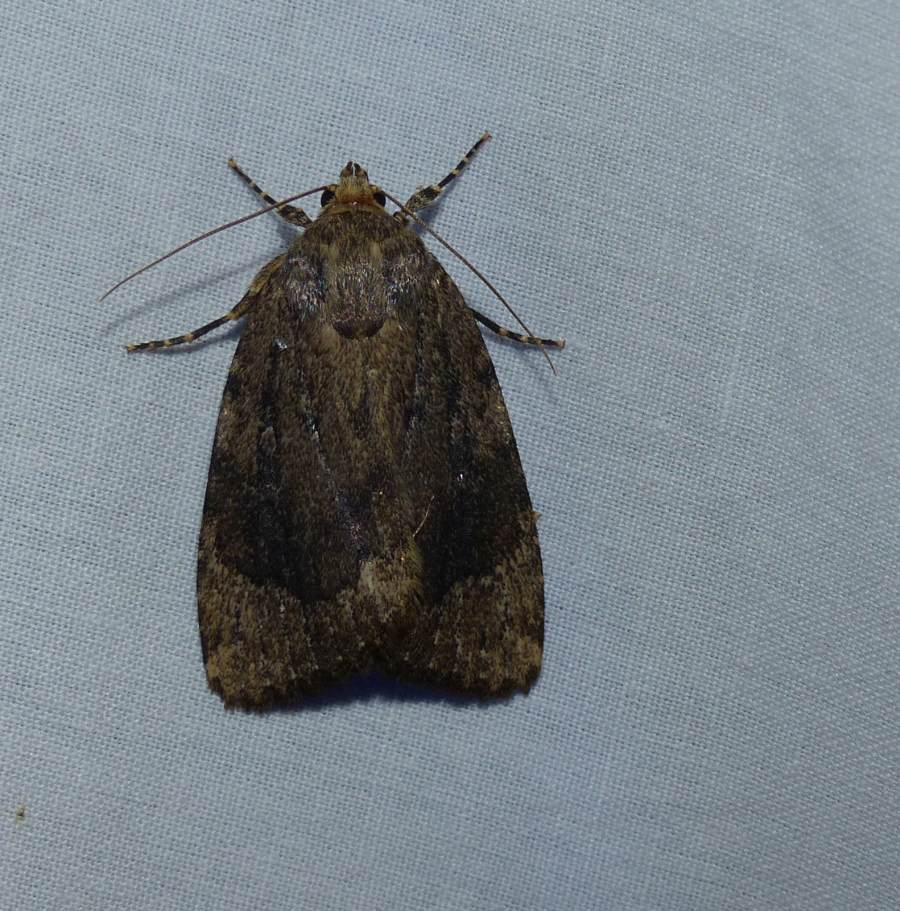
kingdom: Animalia
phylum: Arthropoda
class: Insecta
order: Lepidoptera
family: Noctuidae
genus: Amphipyra
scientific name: Amphipyra pyramidoides
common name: American copper underwing
